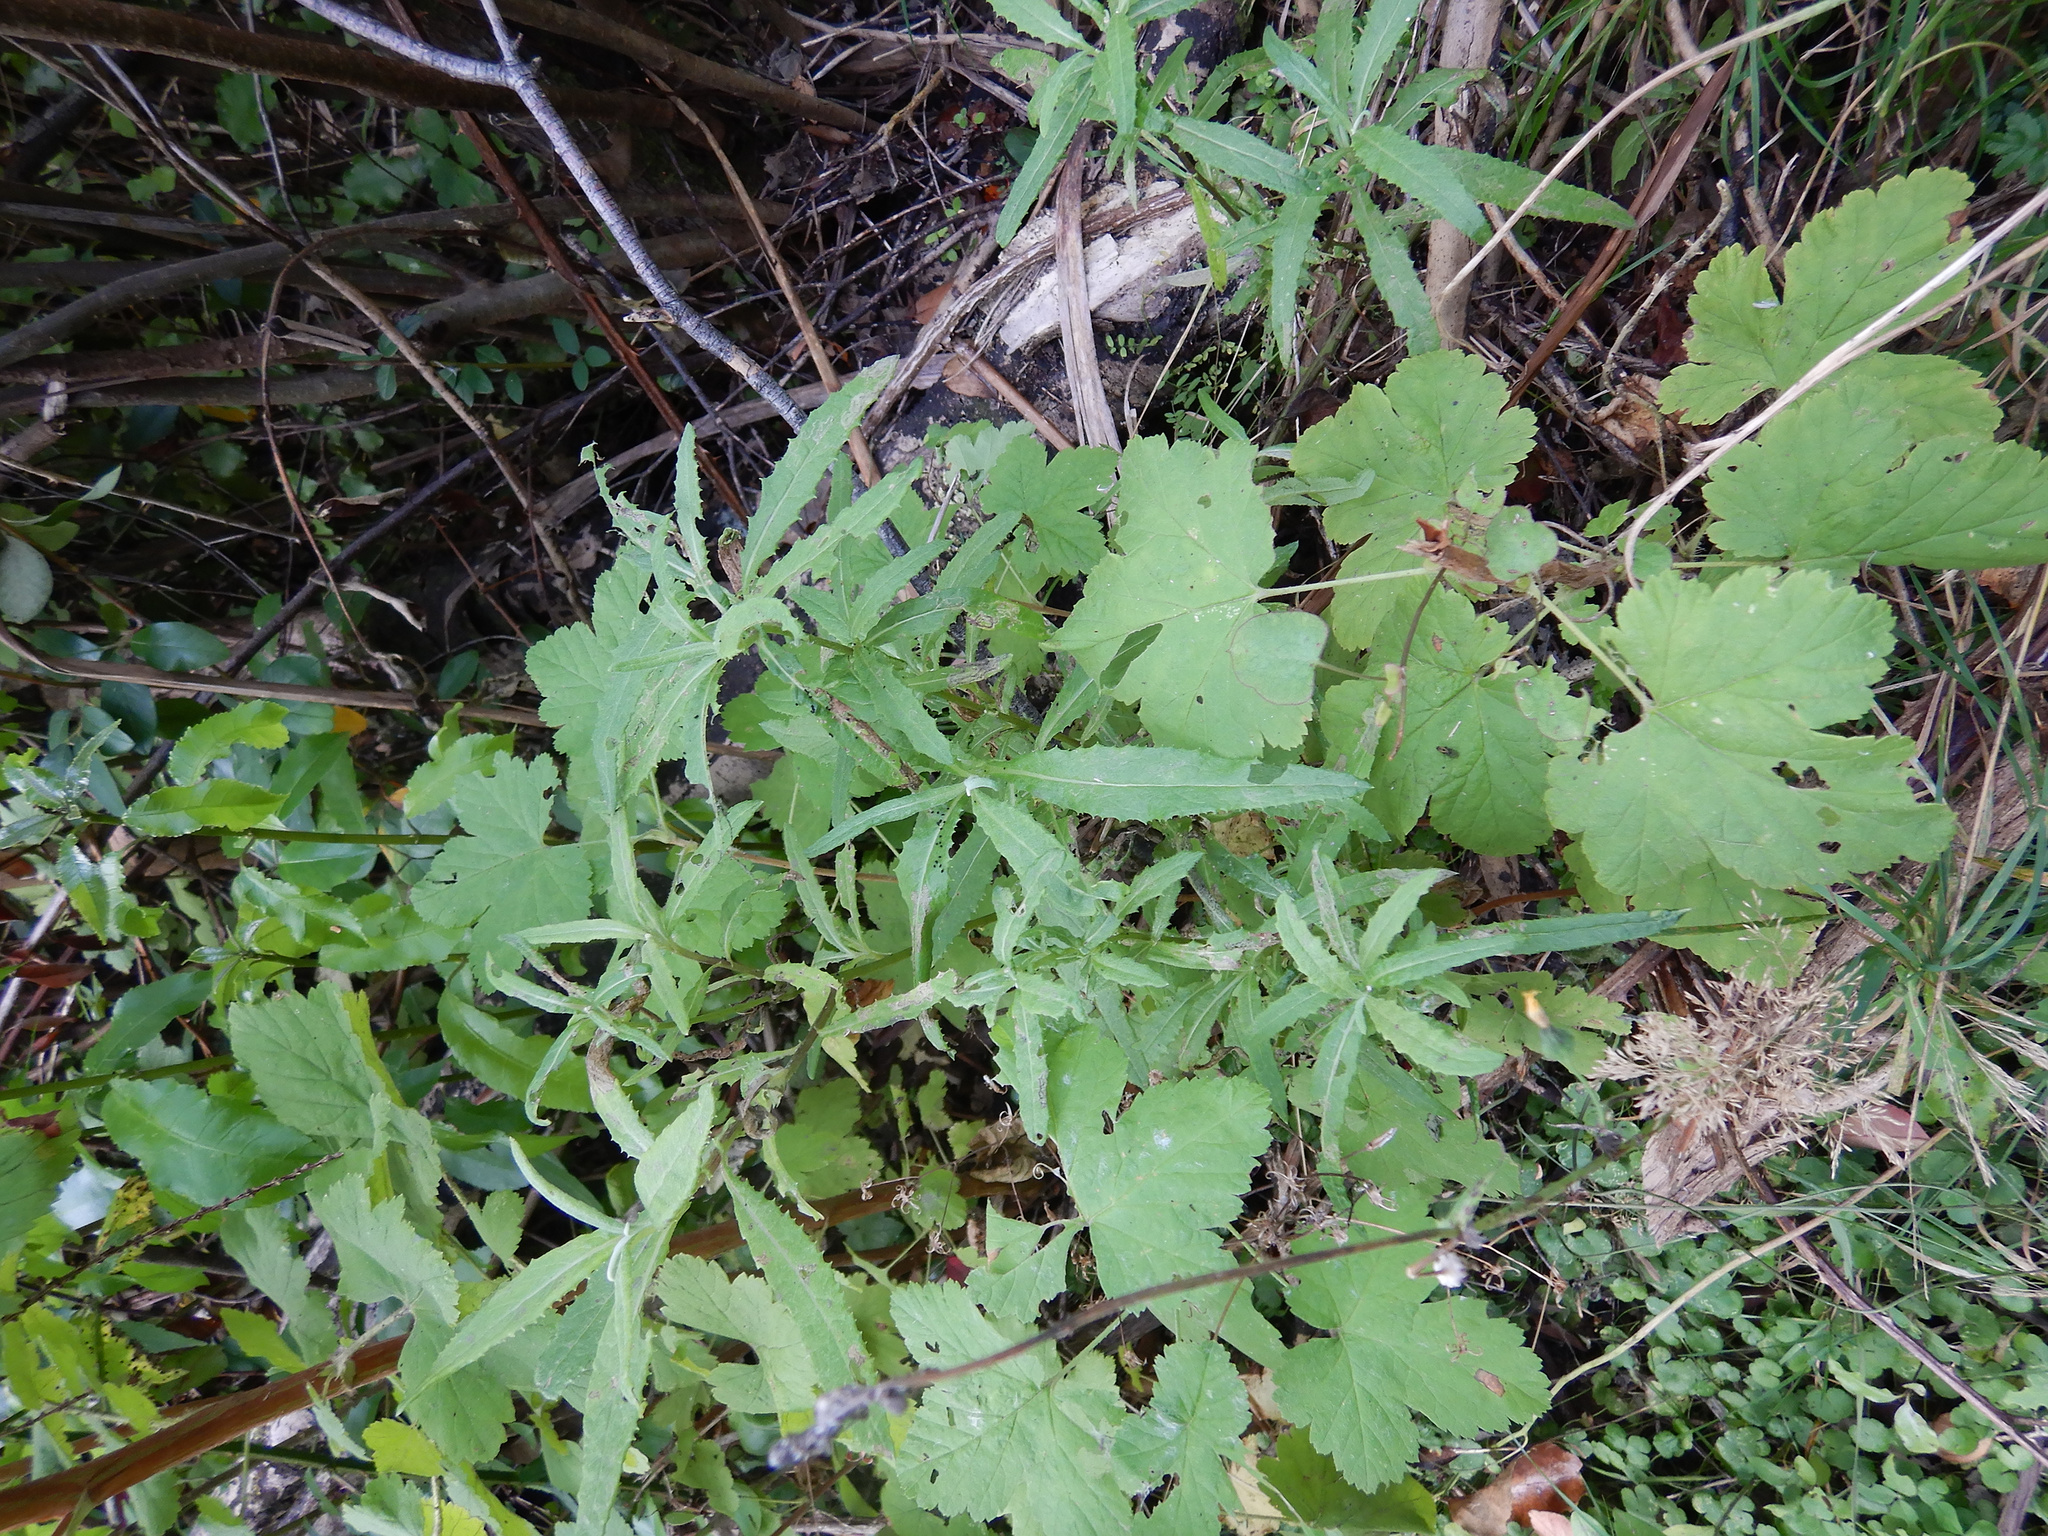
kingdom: Plantae
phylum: Tracheophyta
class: Magnoliopsida
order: Asterales
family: Asteraceae
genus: Senecio
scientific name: Senecio minimus
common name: Toothed fireweed
